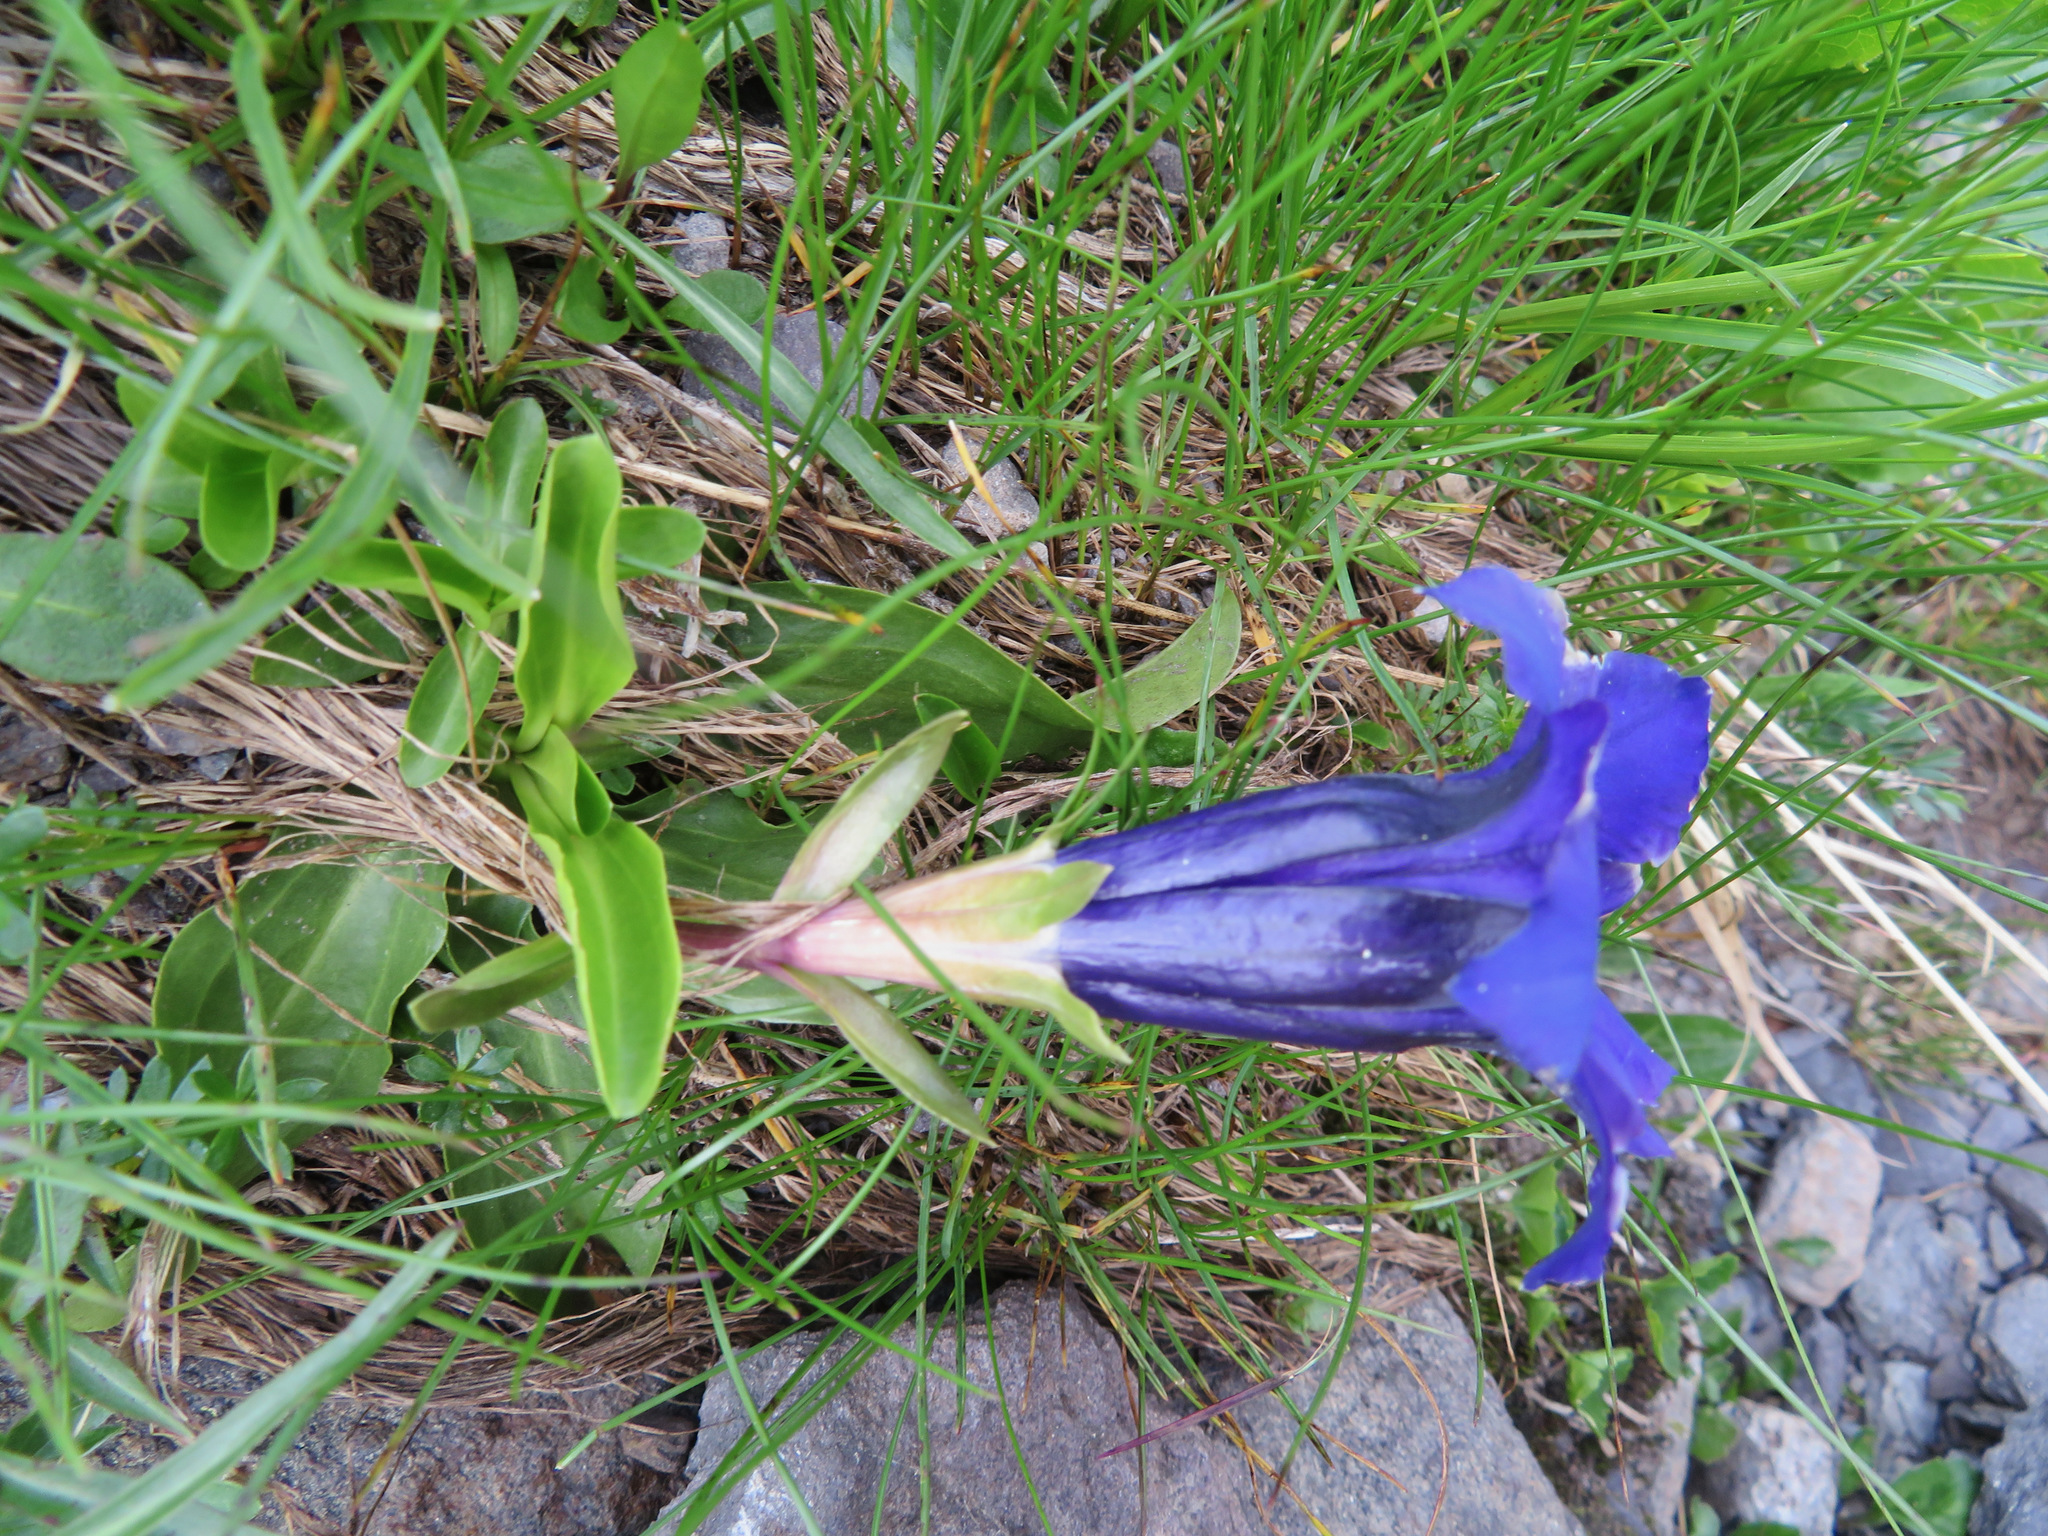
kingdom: Plantae
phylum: Tracheophyta
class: Magnoliopsida
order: Gentianales
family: Gentianaceae
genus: Gentiana
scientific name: Gentiana acaulis
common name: Trumpet gentian
